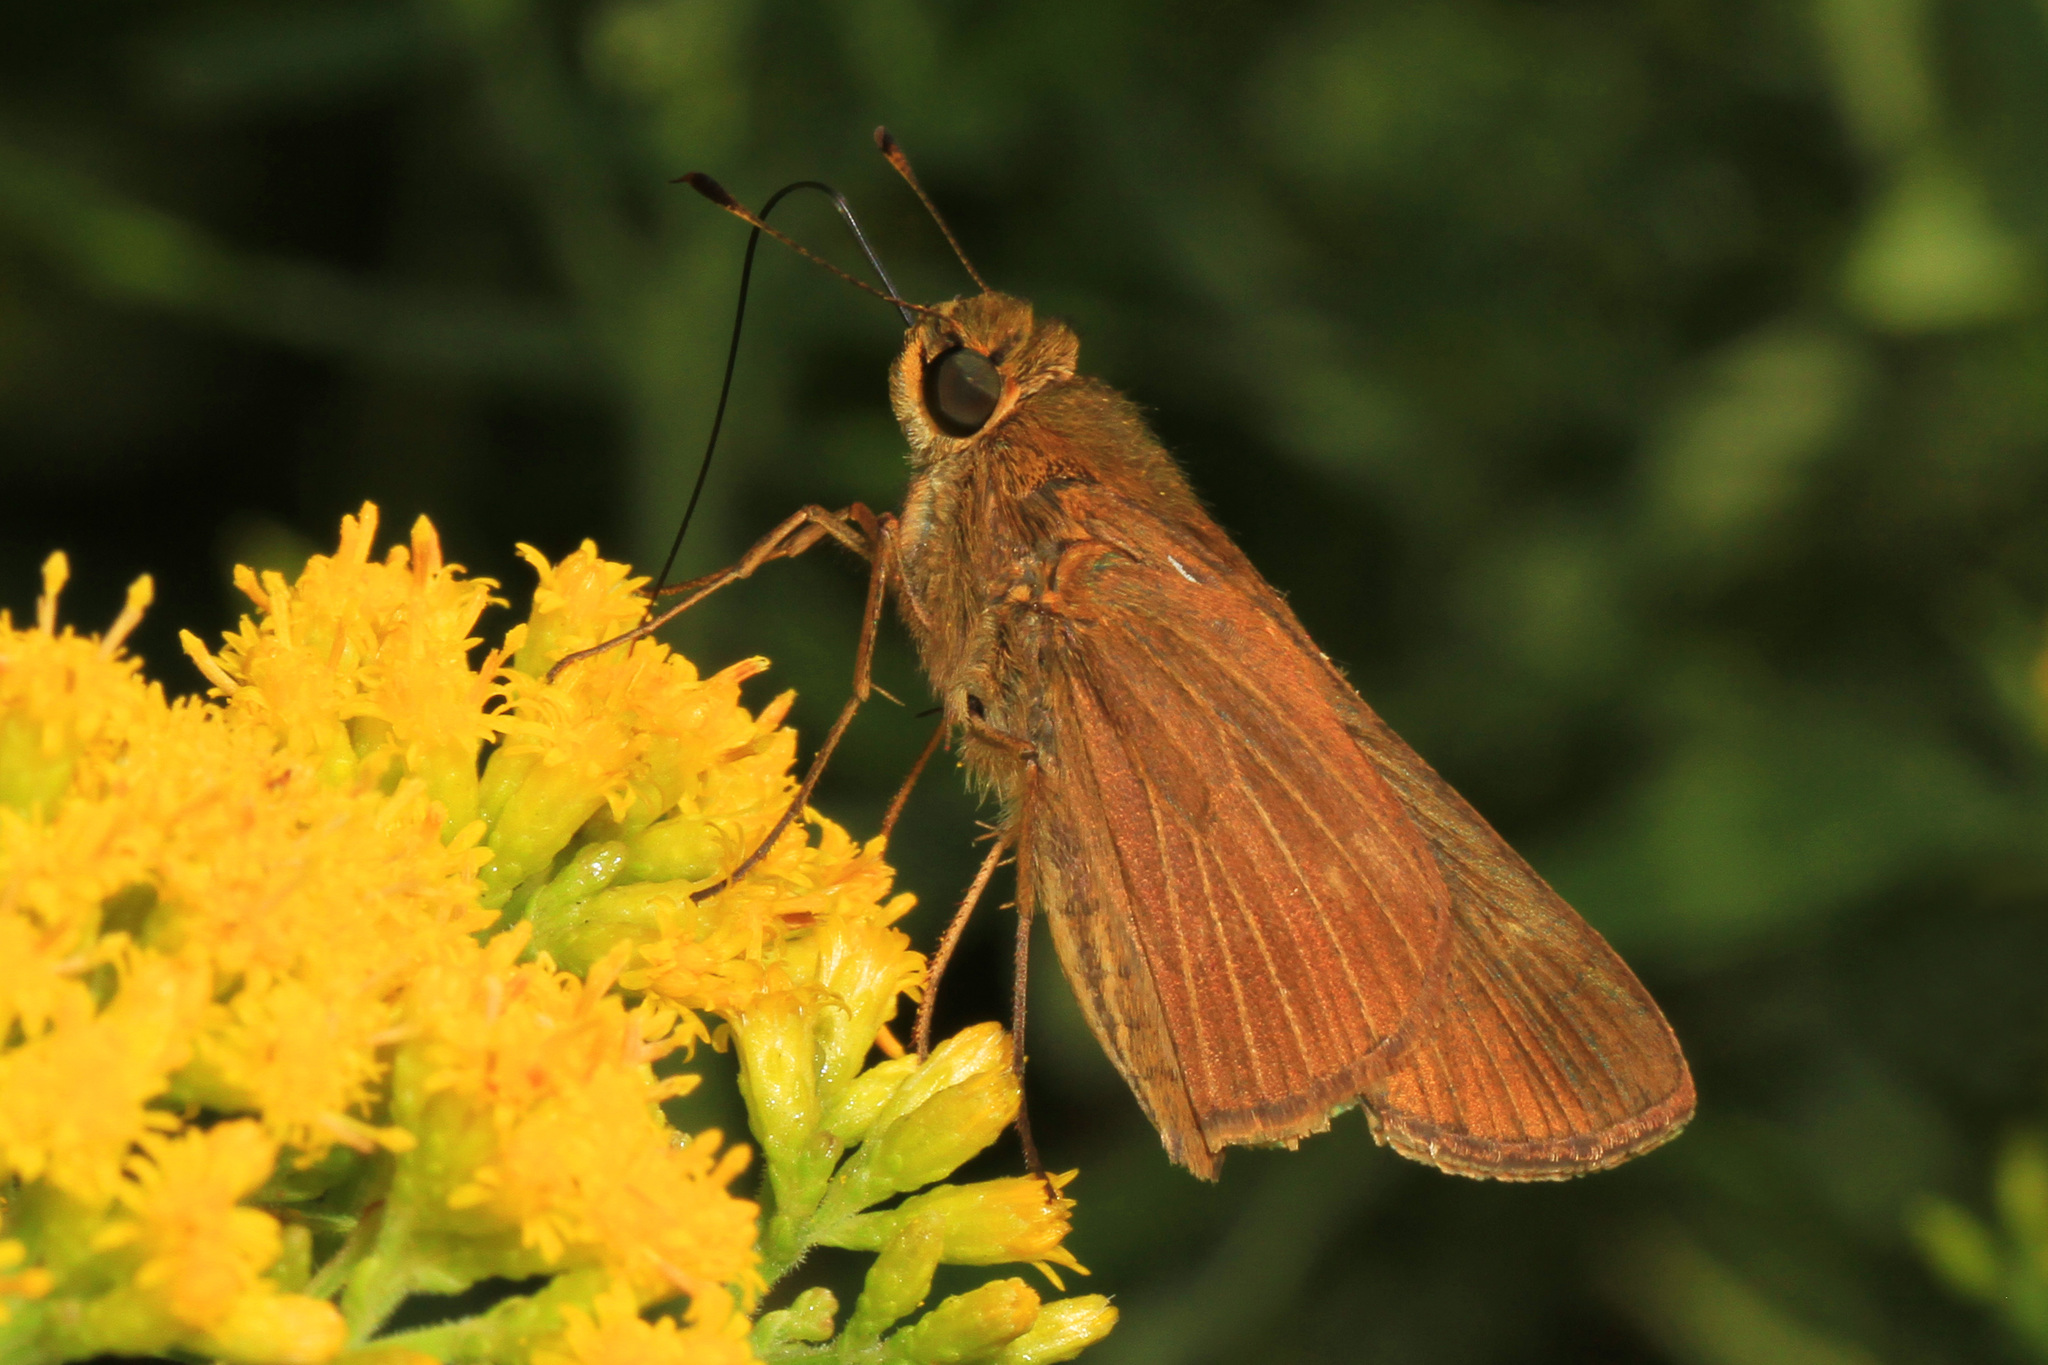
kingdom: Animalia
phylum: Arthropoda
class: Insecta
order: Lepidoptera
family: Hesperiidae
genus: Panoquina
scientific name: Panoquina ocola
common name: Ocola skipper
